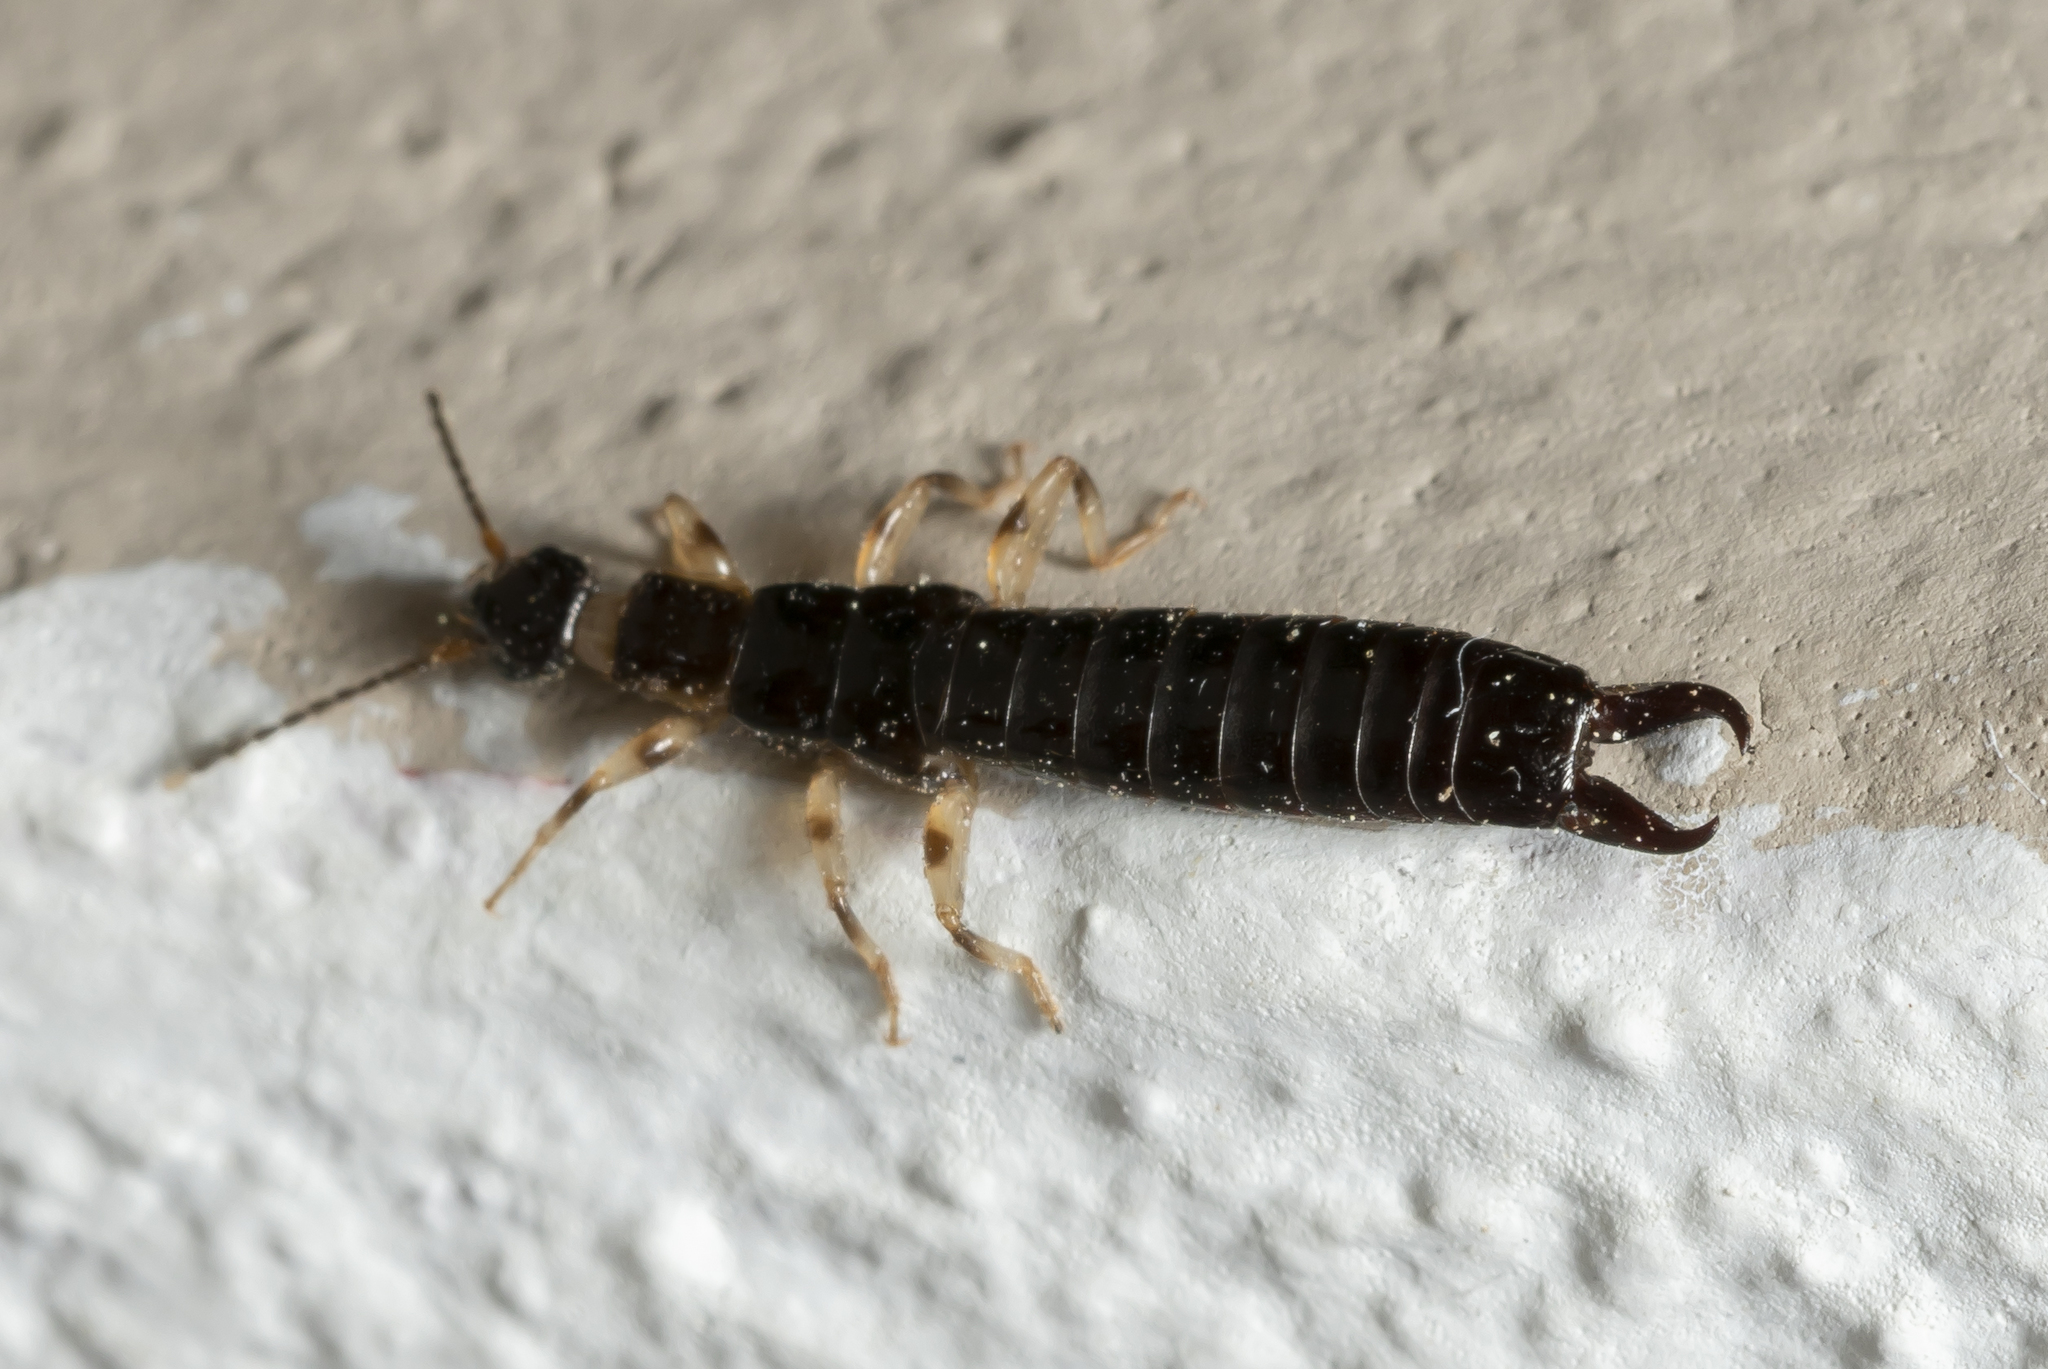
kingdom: Animalia
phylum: Arthropoda
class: Insecta
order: Dermaptera
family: Anisolabididae
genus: Euborellia
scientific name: Euborellia annulipes
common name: Ringlegged earwig
